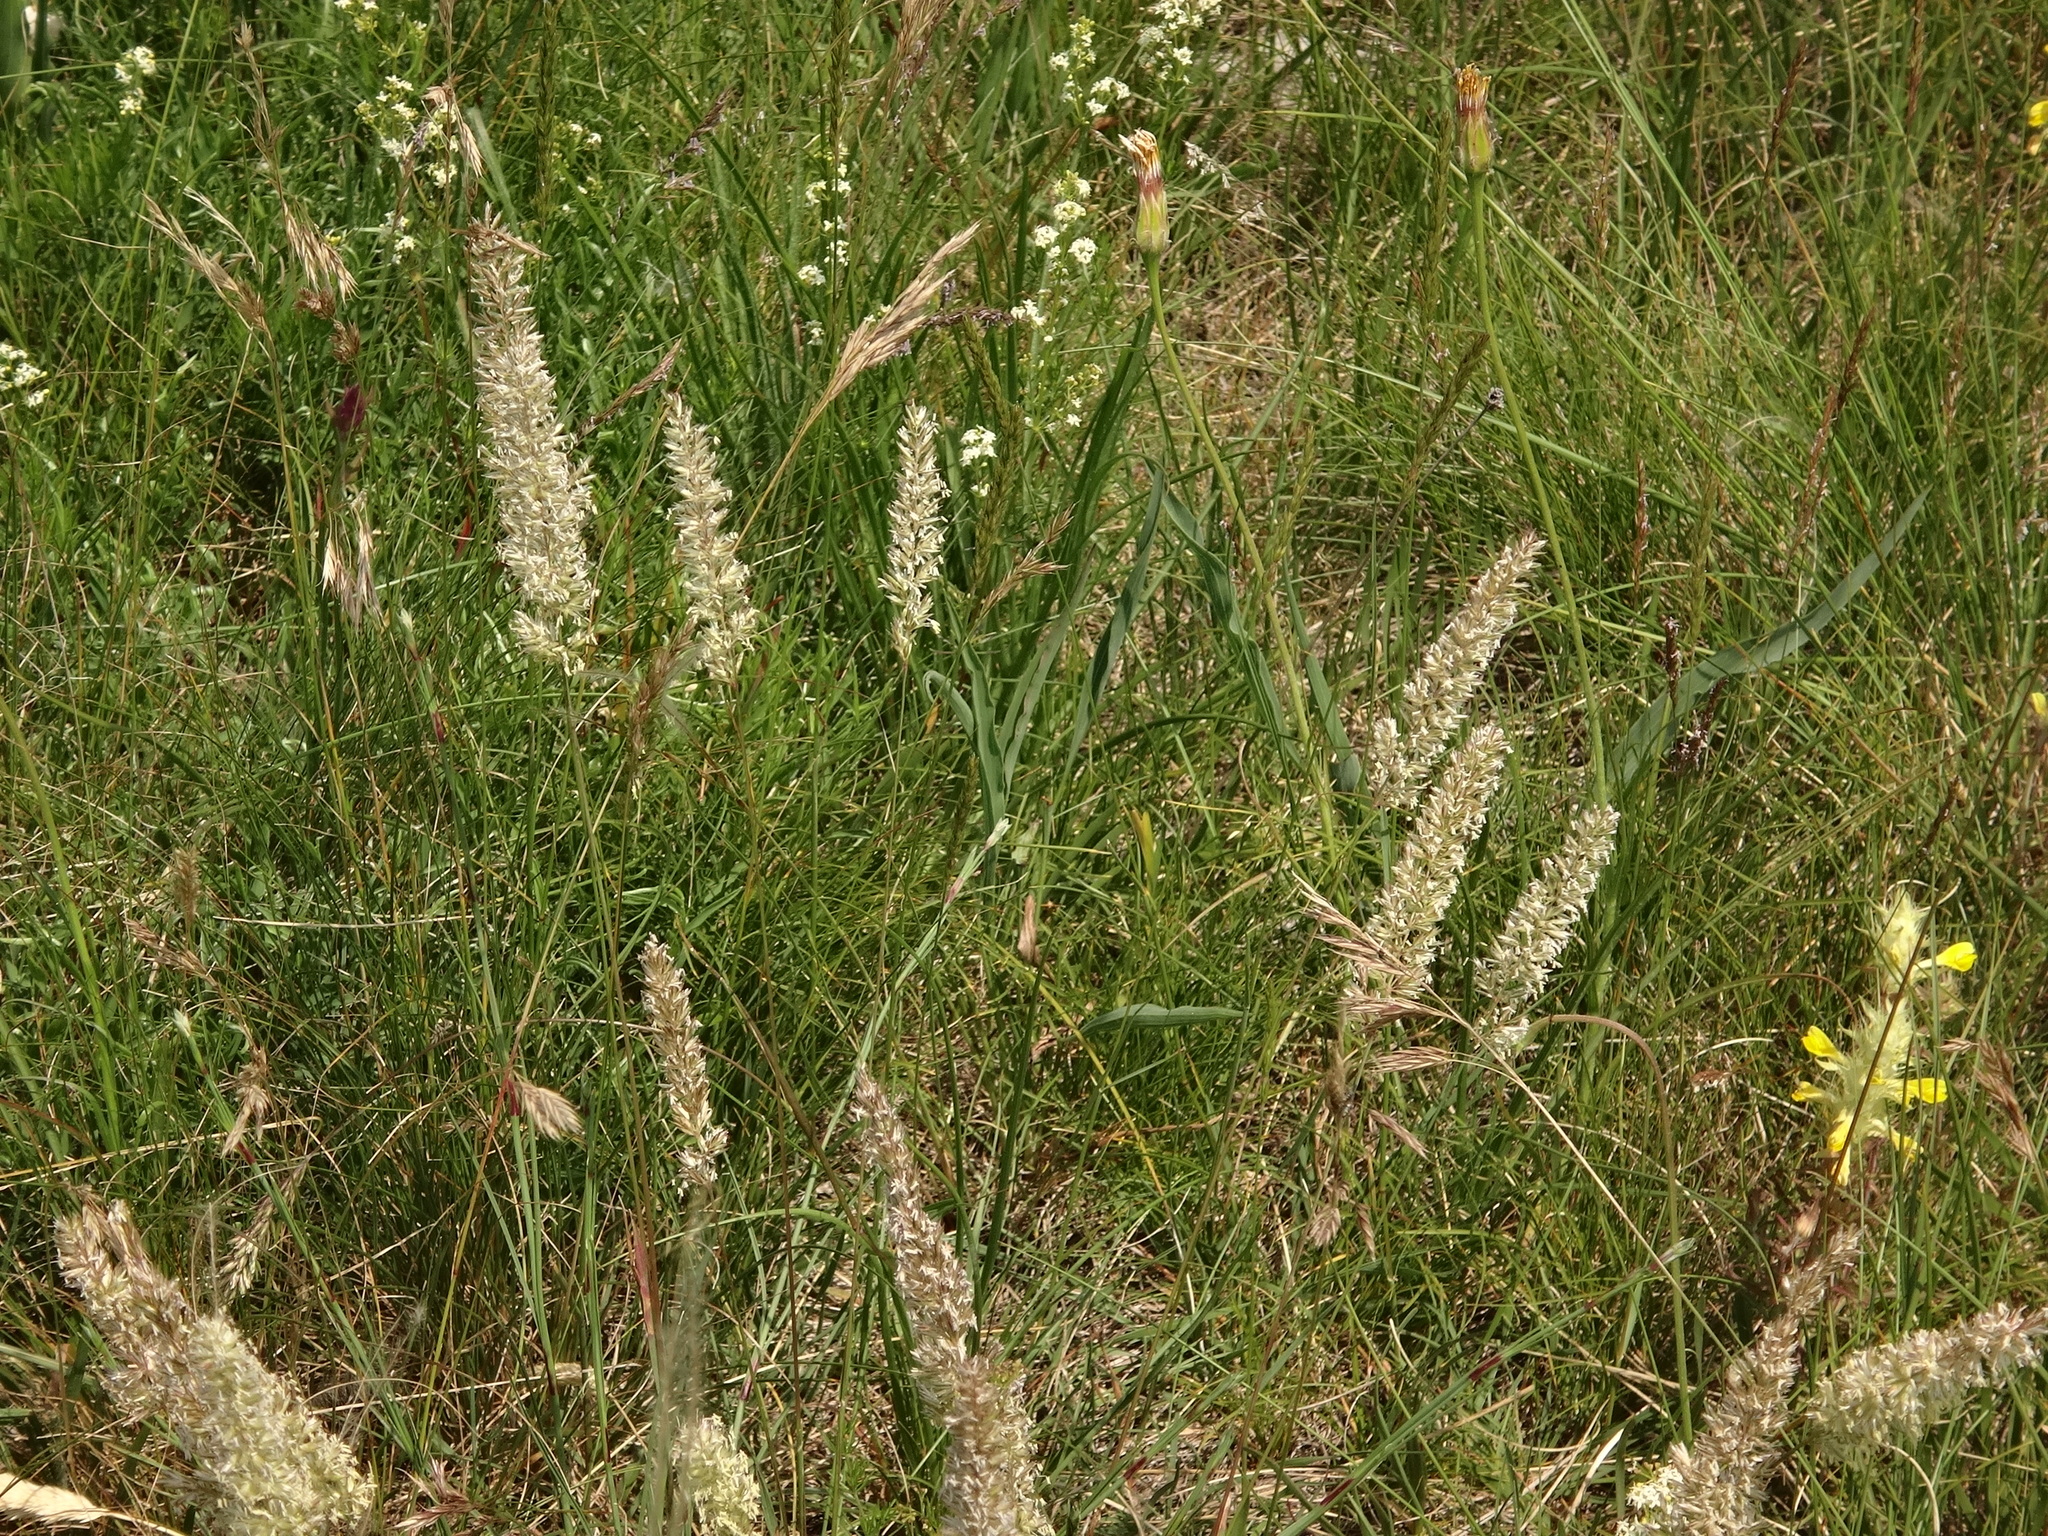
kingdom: Plantae
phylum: Tracheophyta
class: Liliopsida
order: Poales
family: Poaceae
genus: Koeleria
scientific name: Koeleria macrantha
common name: Crested hair-grass
